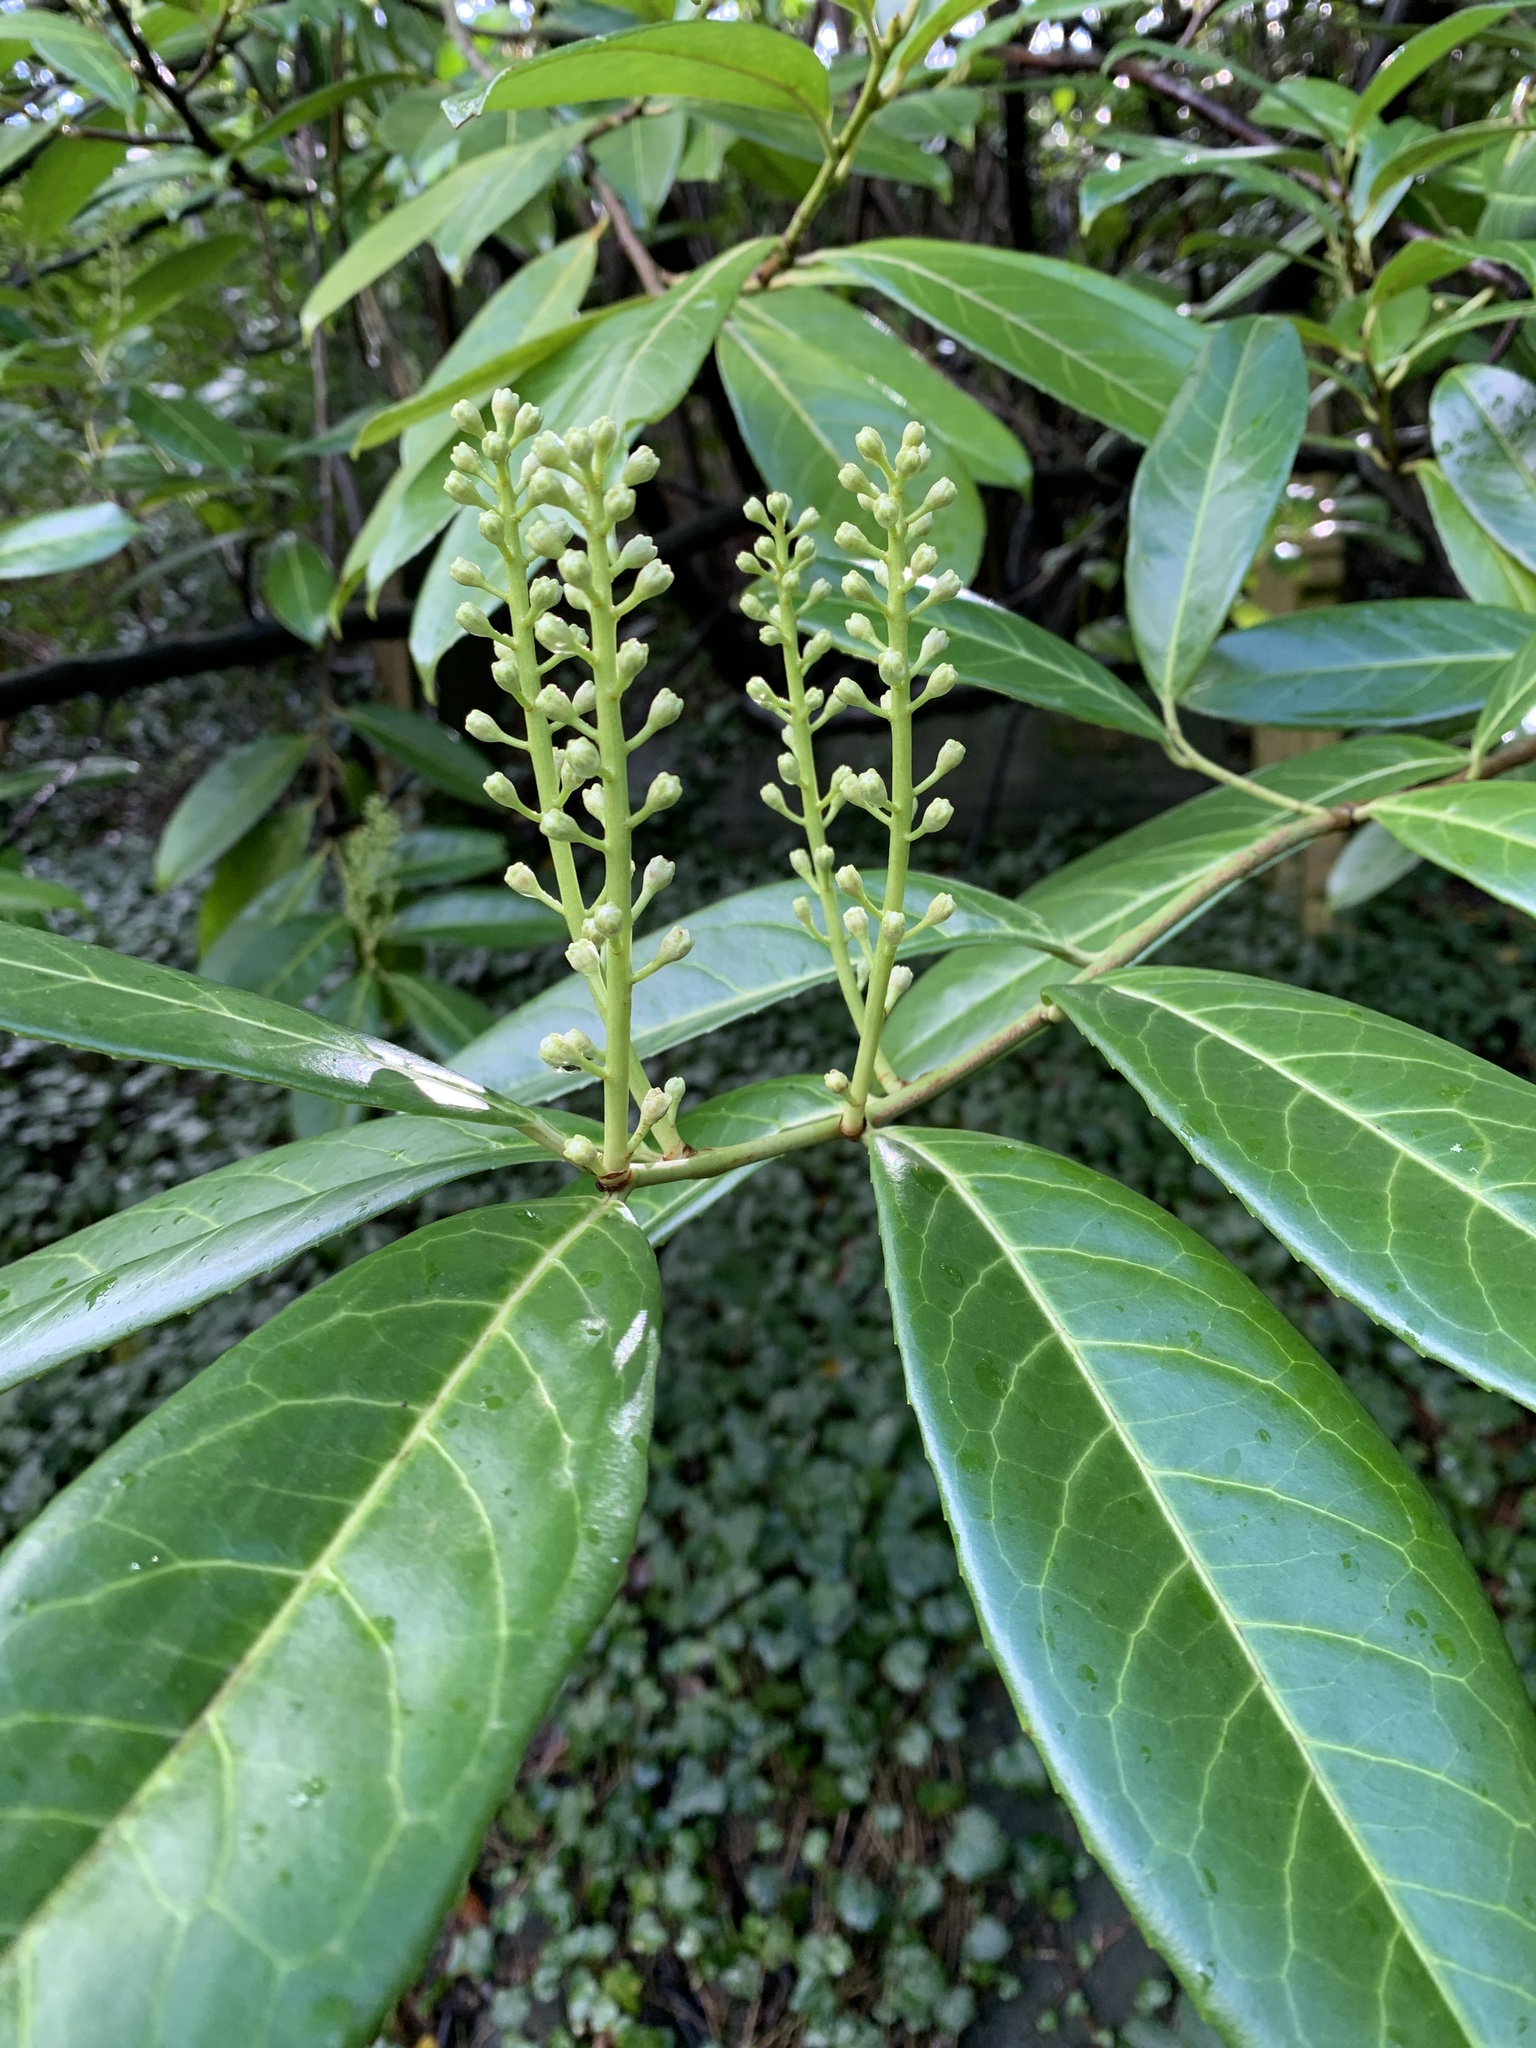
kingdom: Plantae
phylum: Tracheophyta
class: Magnoliopsida
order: Rosales
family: Rosaceae
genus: Prunus
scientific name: Prunus laurocerasus
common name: Cherry laurel
